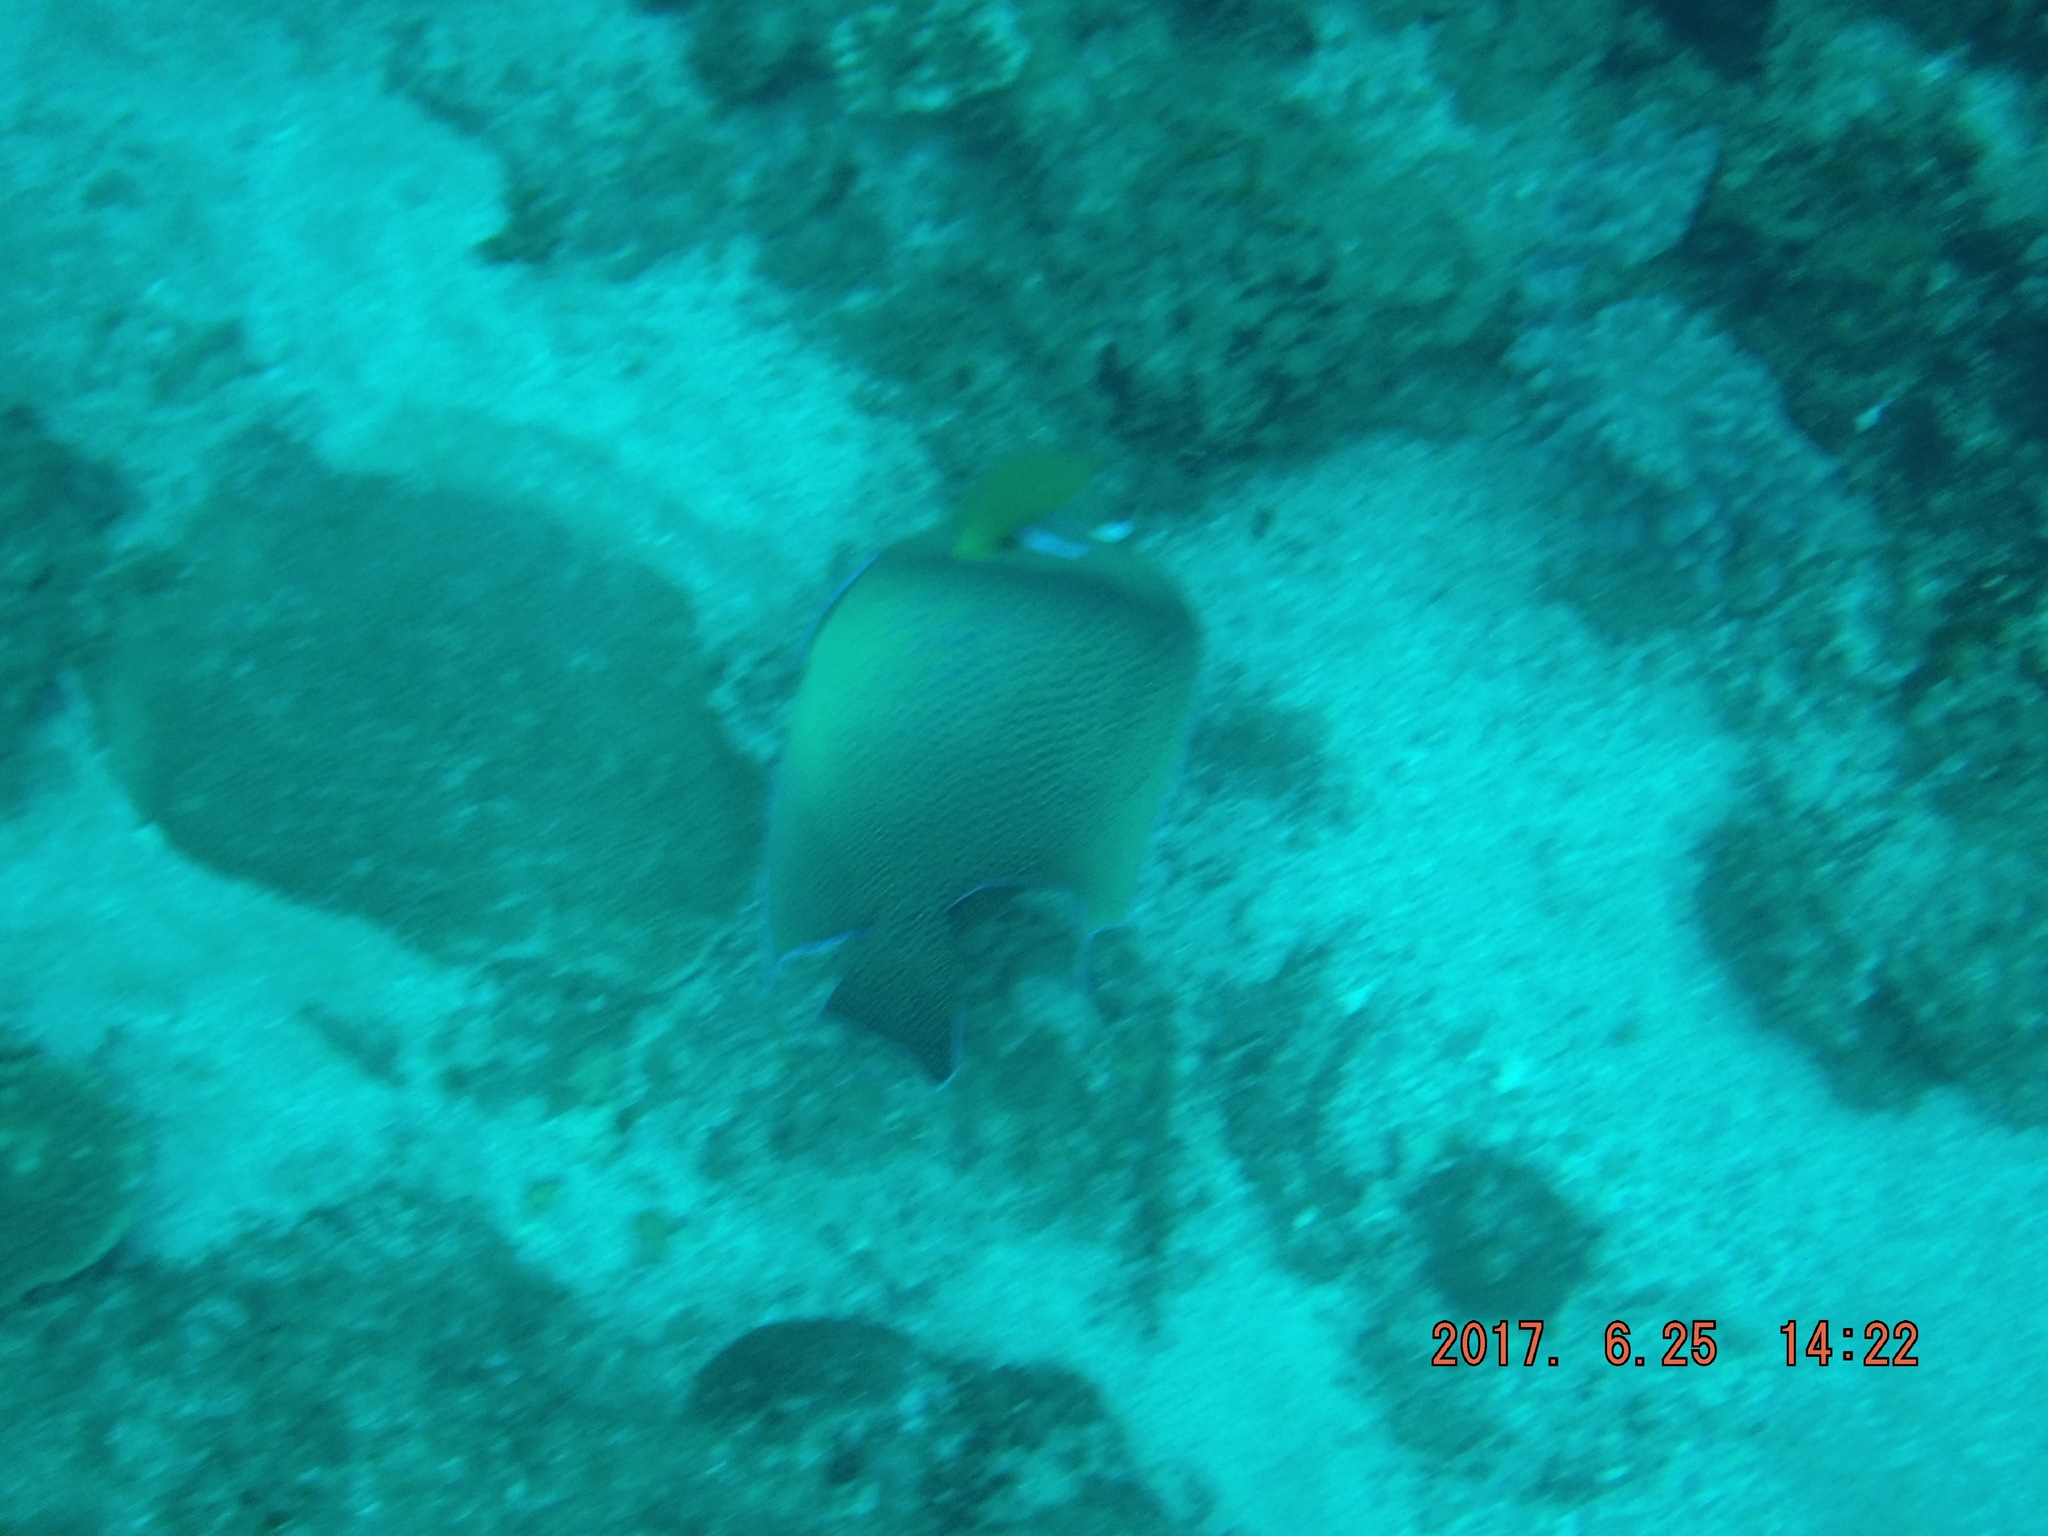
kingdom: Animalia
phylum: Chordata
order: Perciformes
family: Pomacanthidae
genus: Pomacanthus
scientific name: Pomacanthus semicirculatus
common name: Semicircle angelfish
